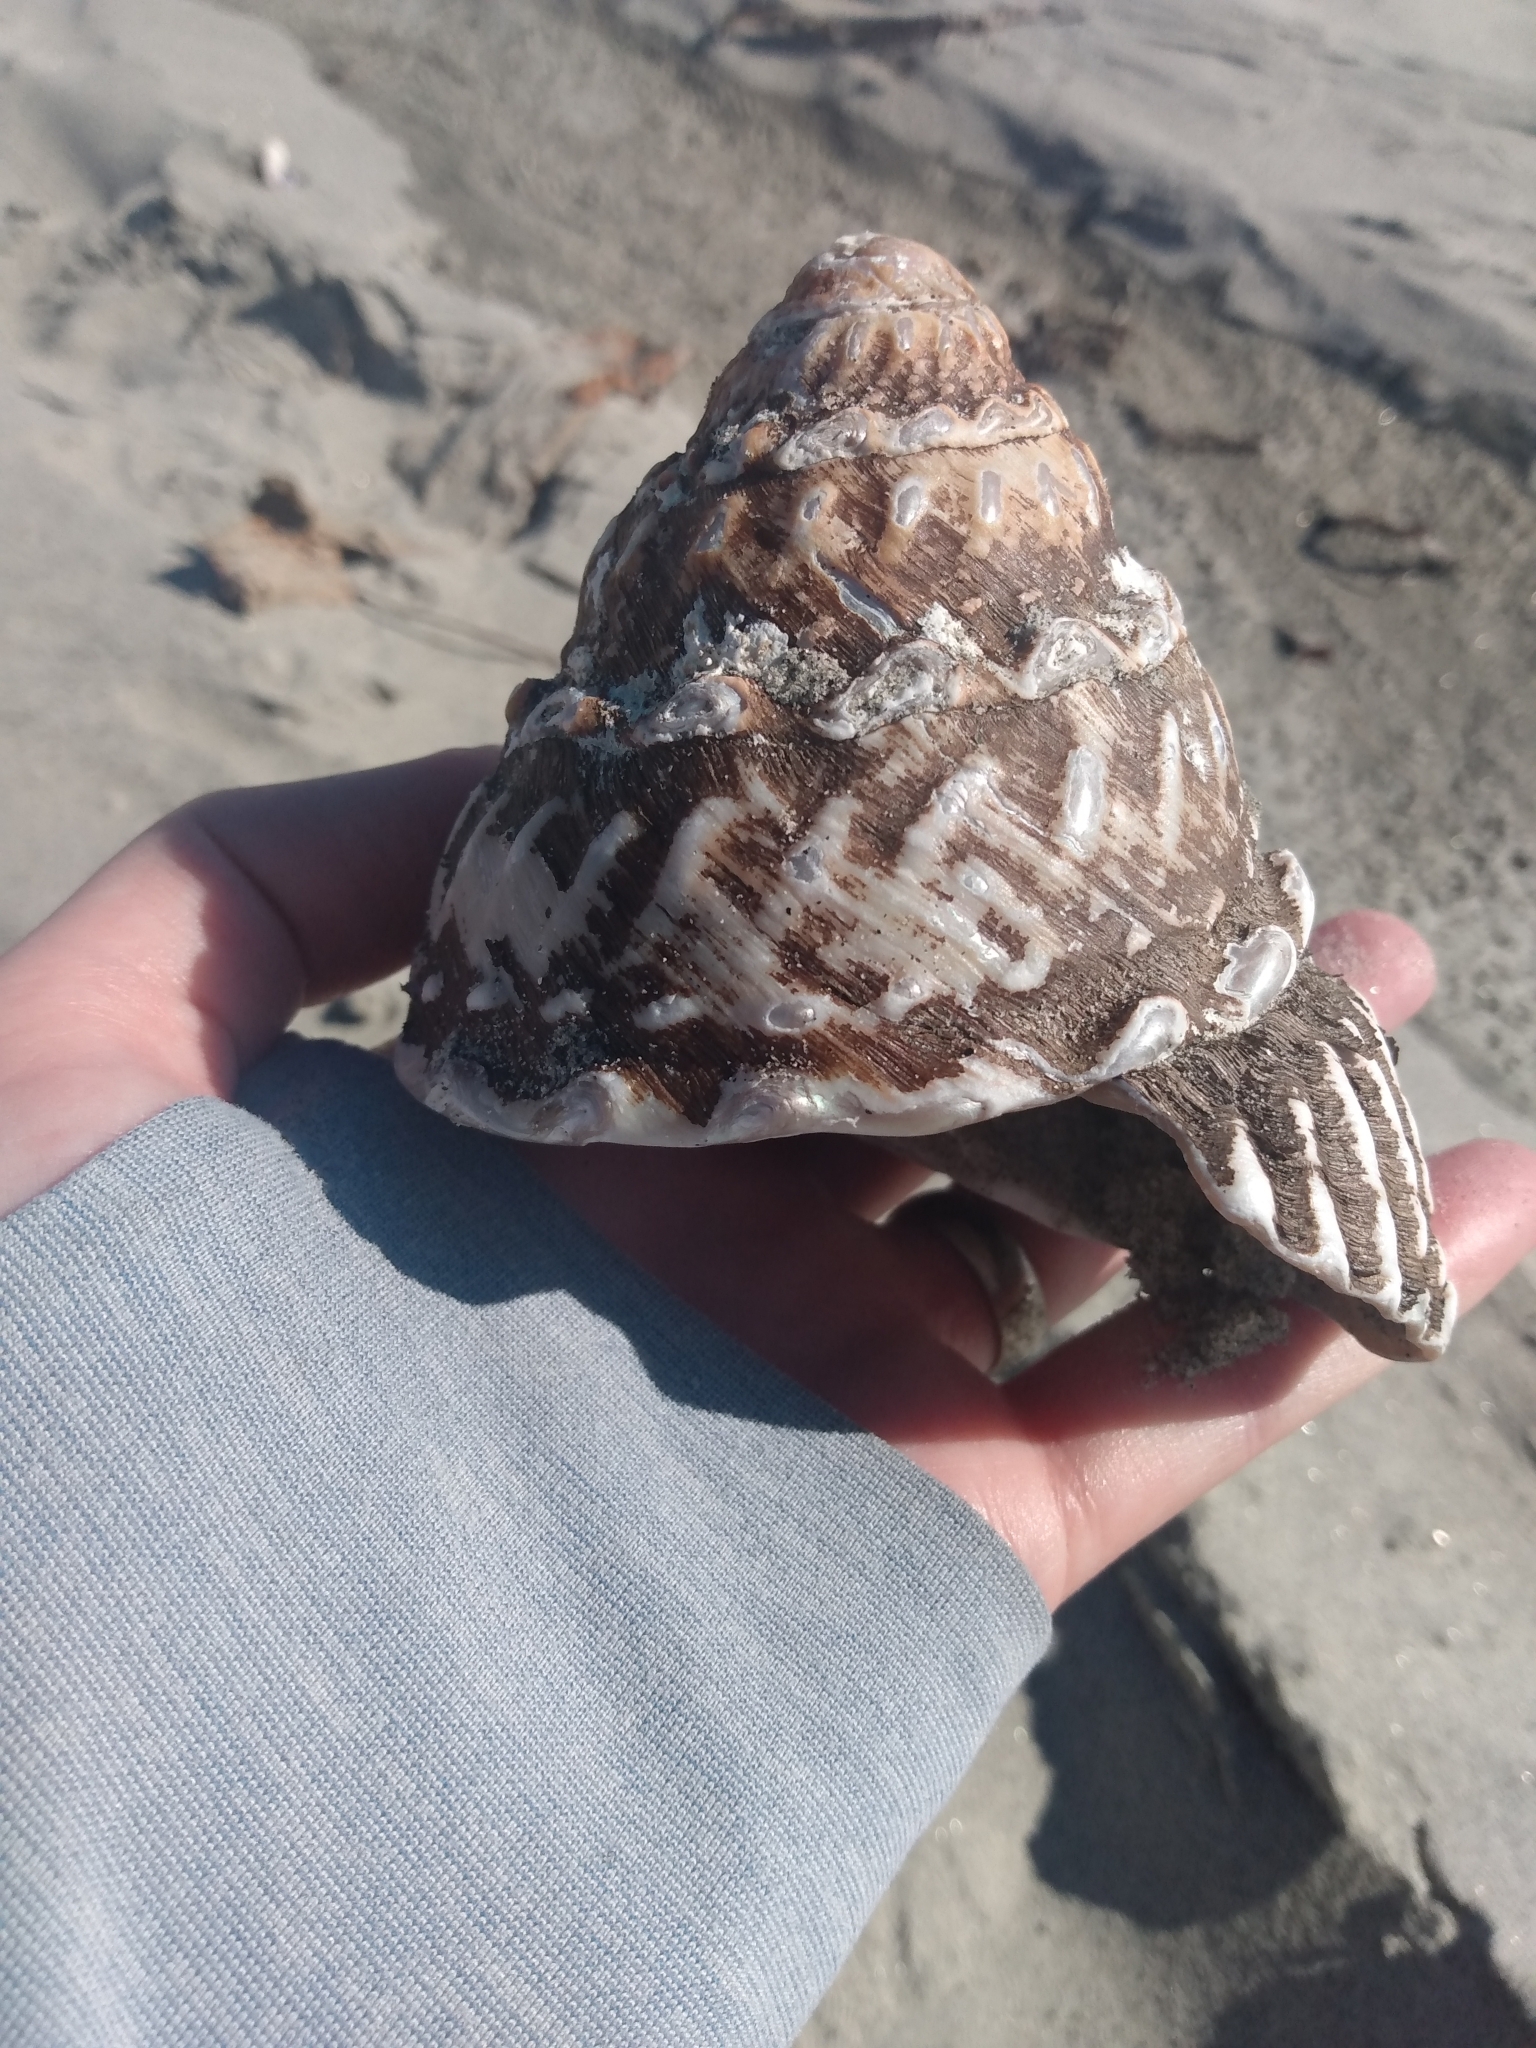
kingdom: Animalia
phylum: Mollusca
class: Gastropoda
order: Trochida
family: Turbinidae
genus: Megastraea
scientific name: Megastraea undosa
